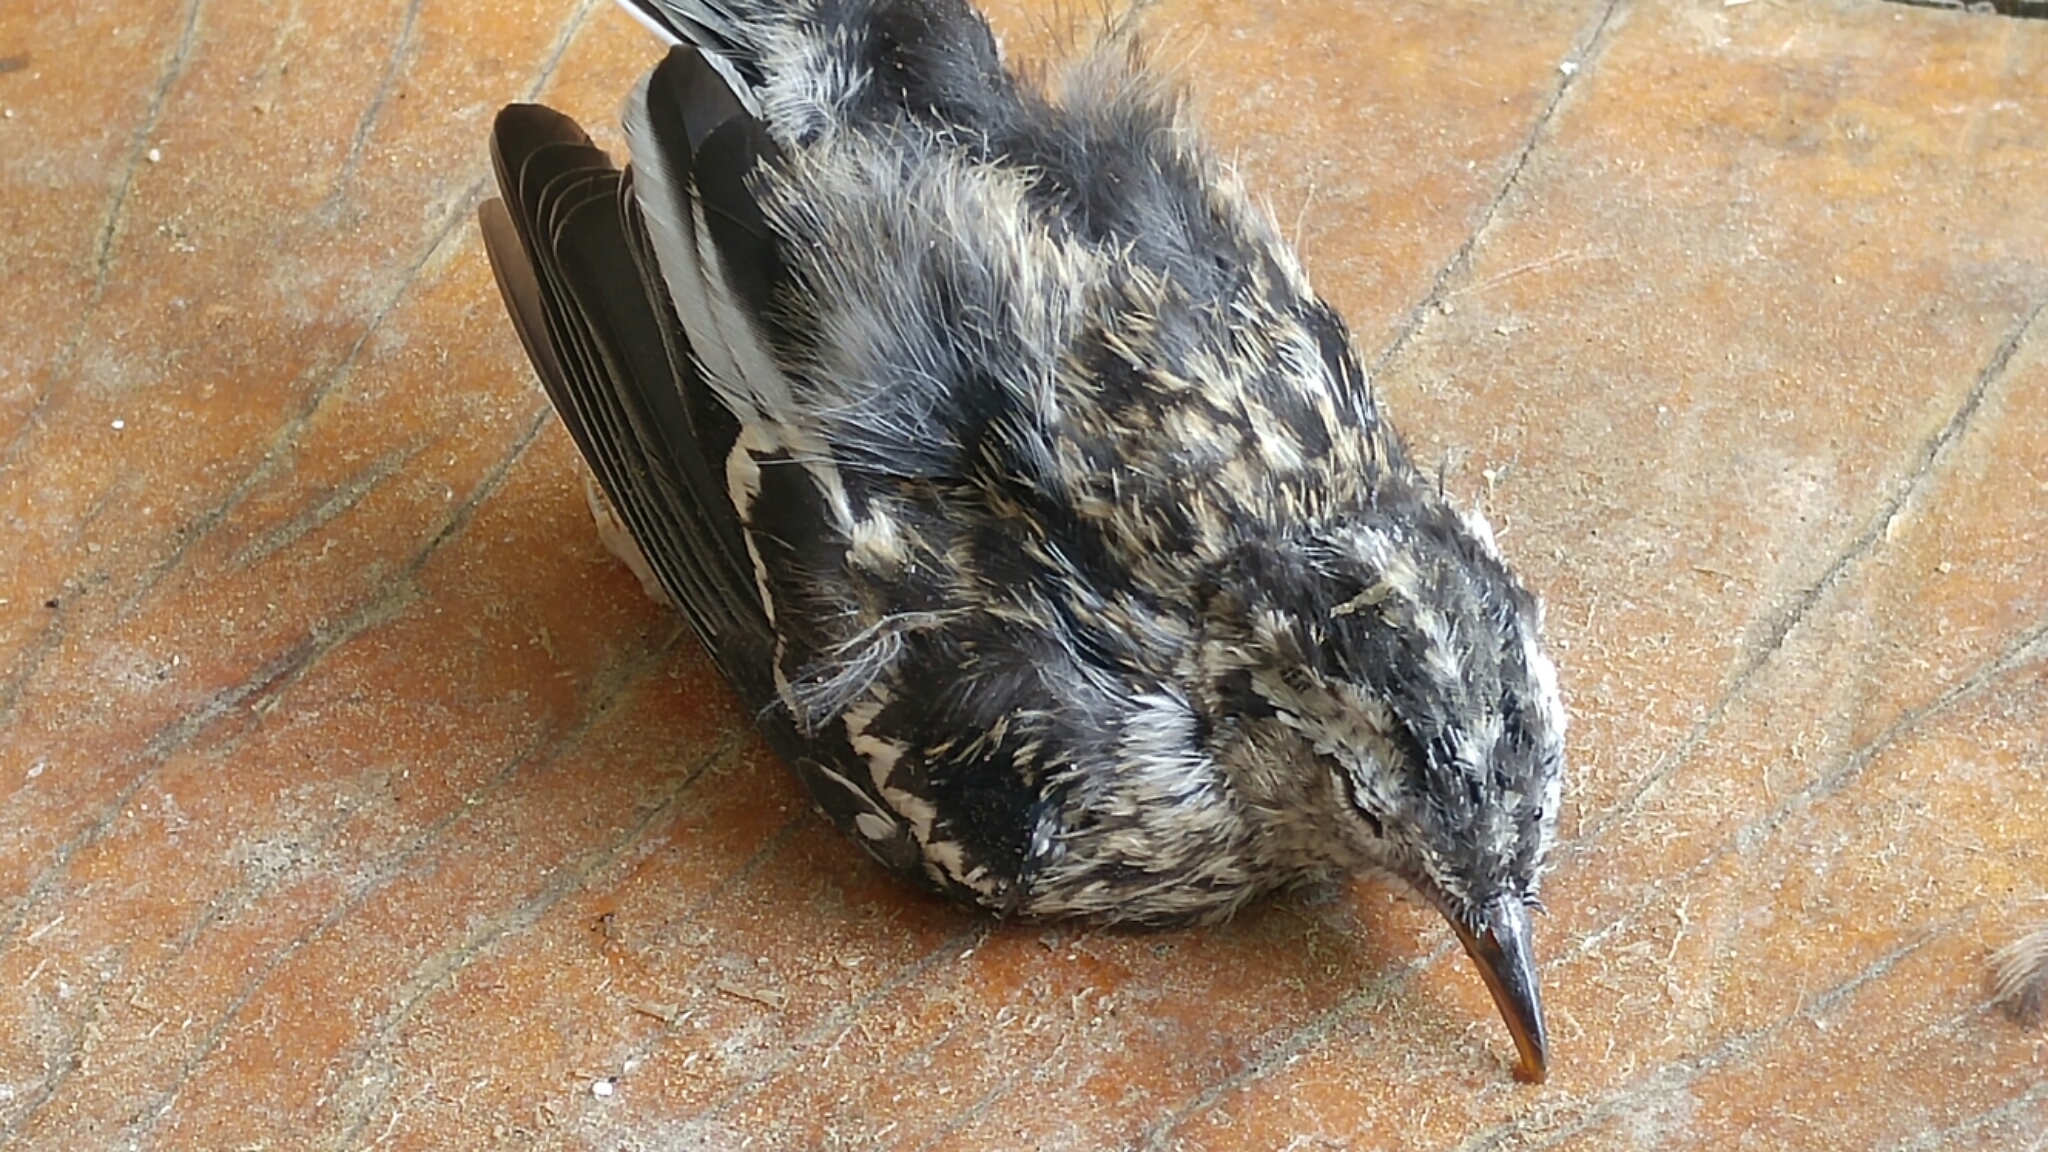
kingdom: Animalia
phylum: Chordata
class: Aves
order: Passeriformes
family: Parulidae
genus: Mniotilta
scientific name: Mniotilta varia
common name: Black-and-white warbler
